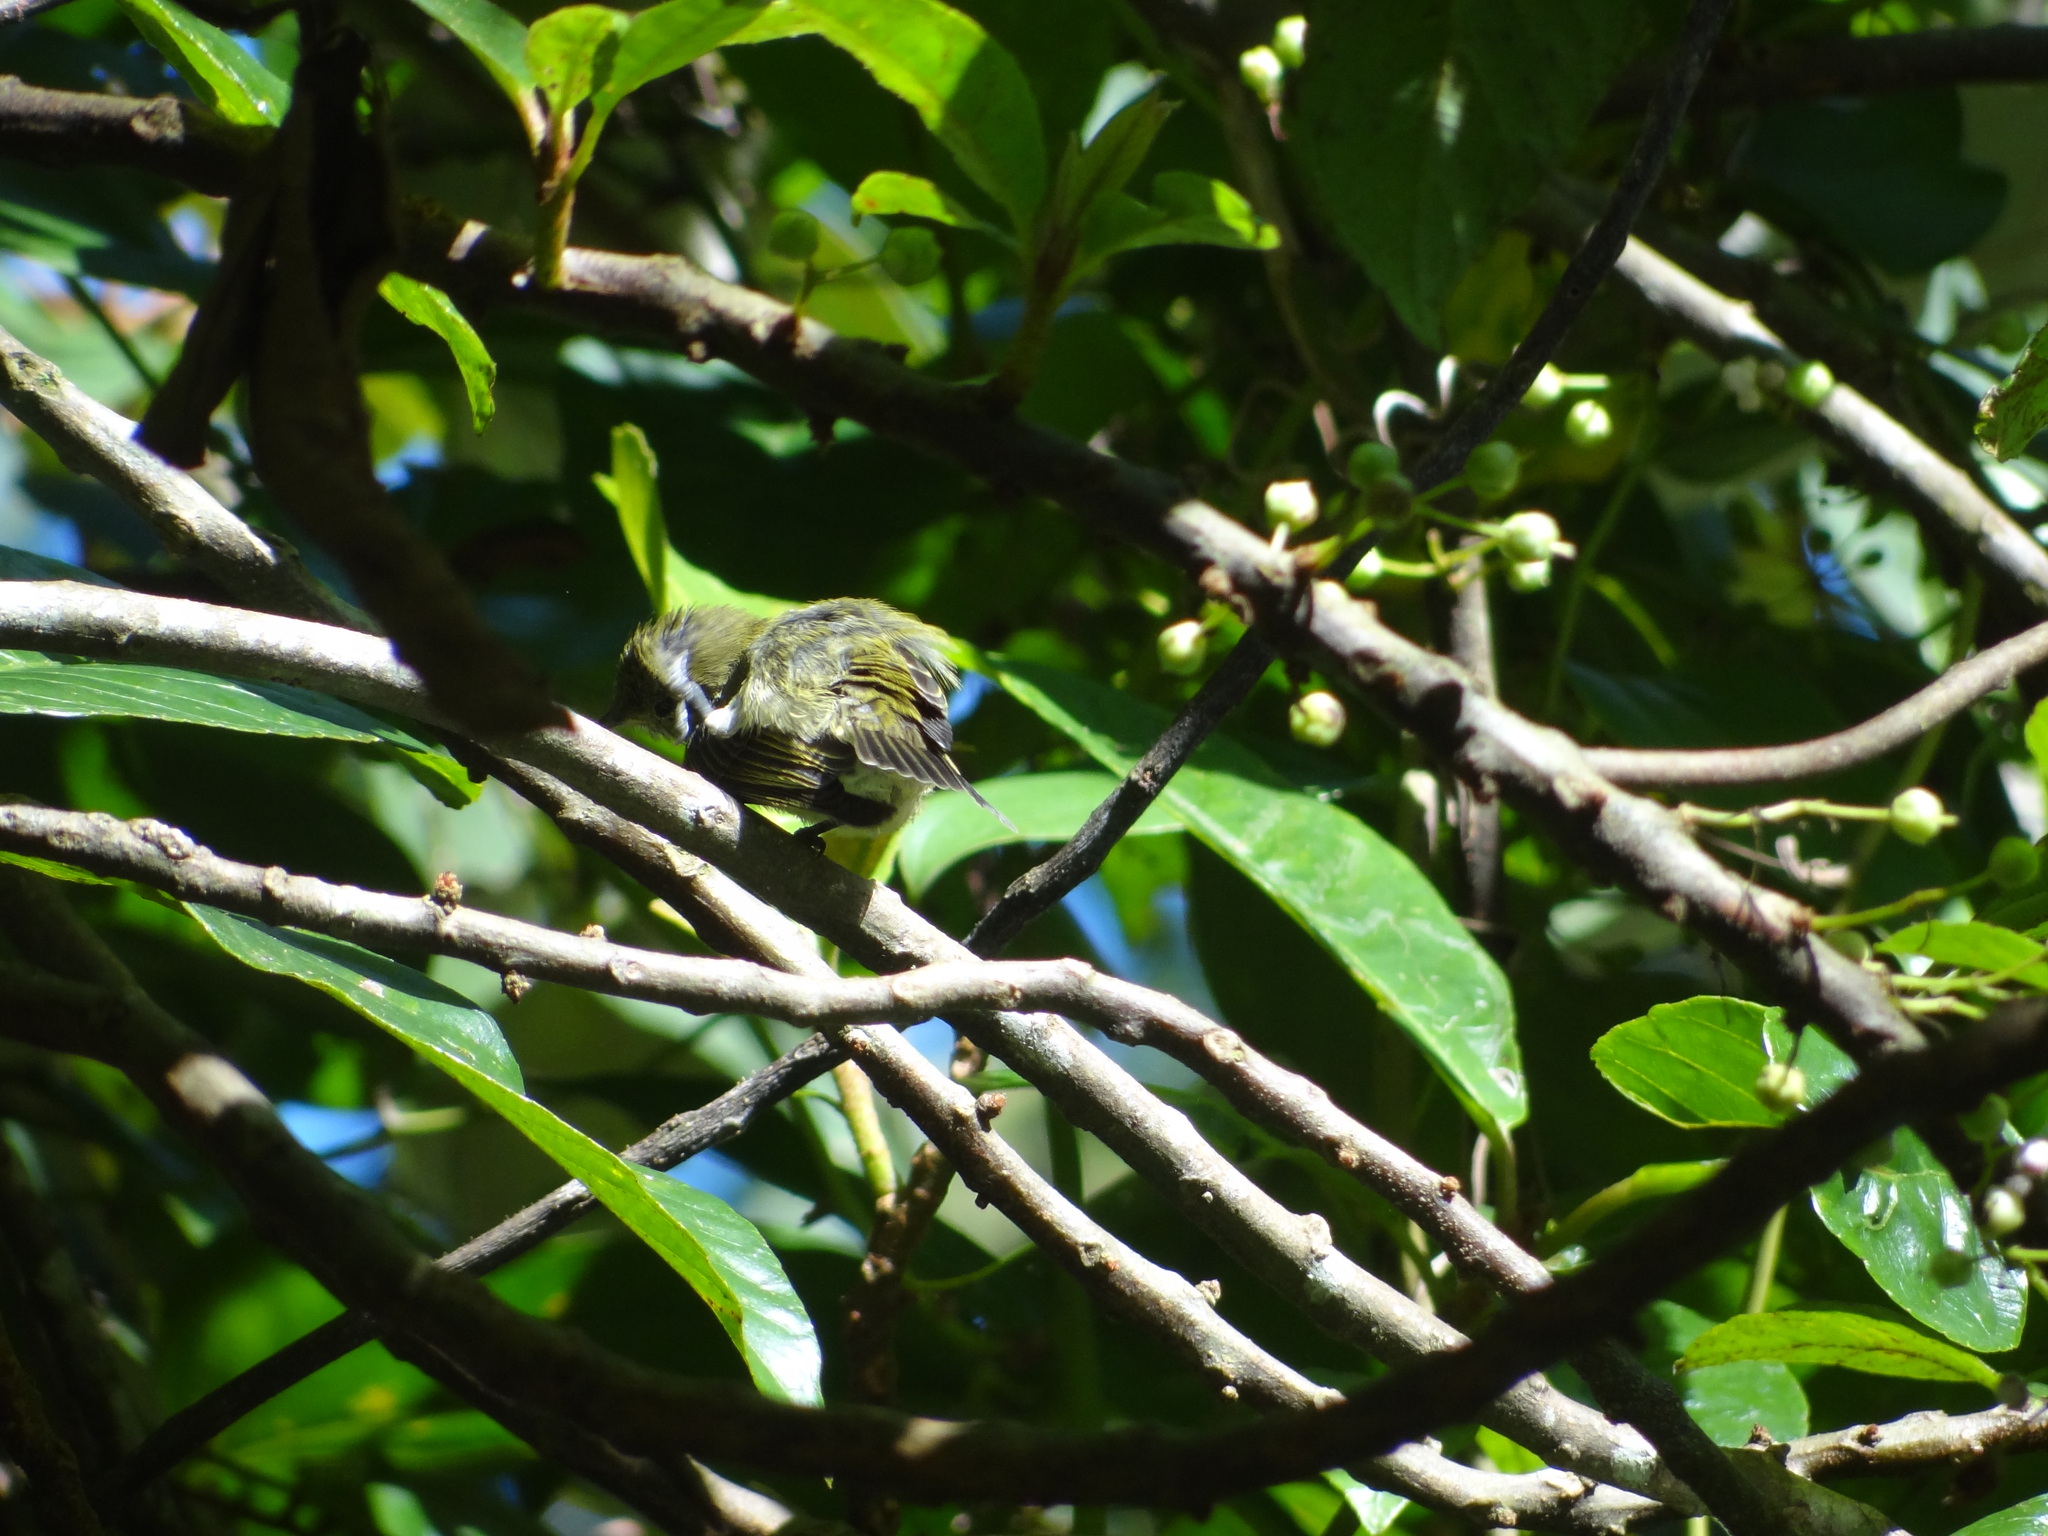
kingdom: Animalia
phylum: Chordata
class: Aves
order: Passeriformes
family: Vireonidae
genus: Erpornis
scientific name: Erpornis zantholeuca
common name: White-bellied erpornis
